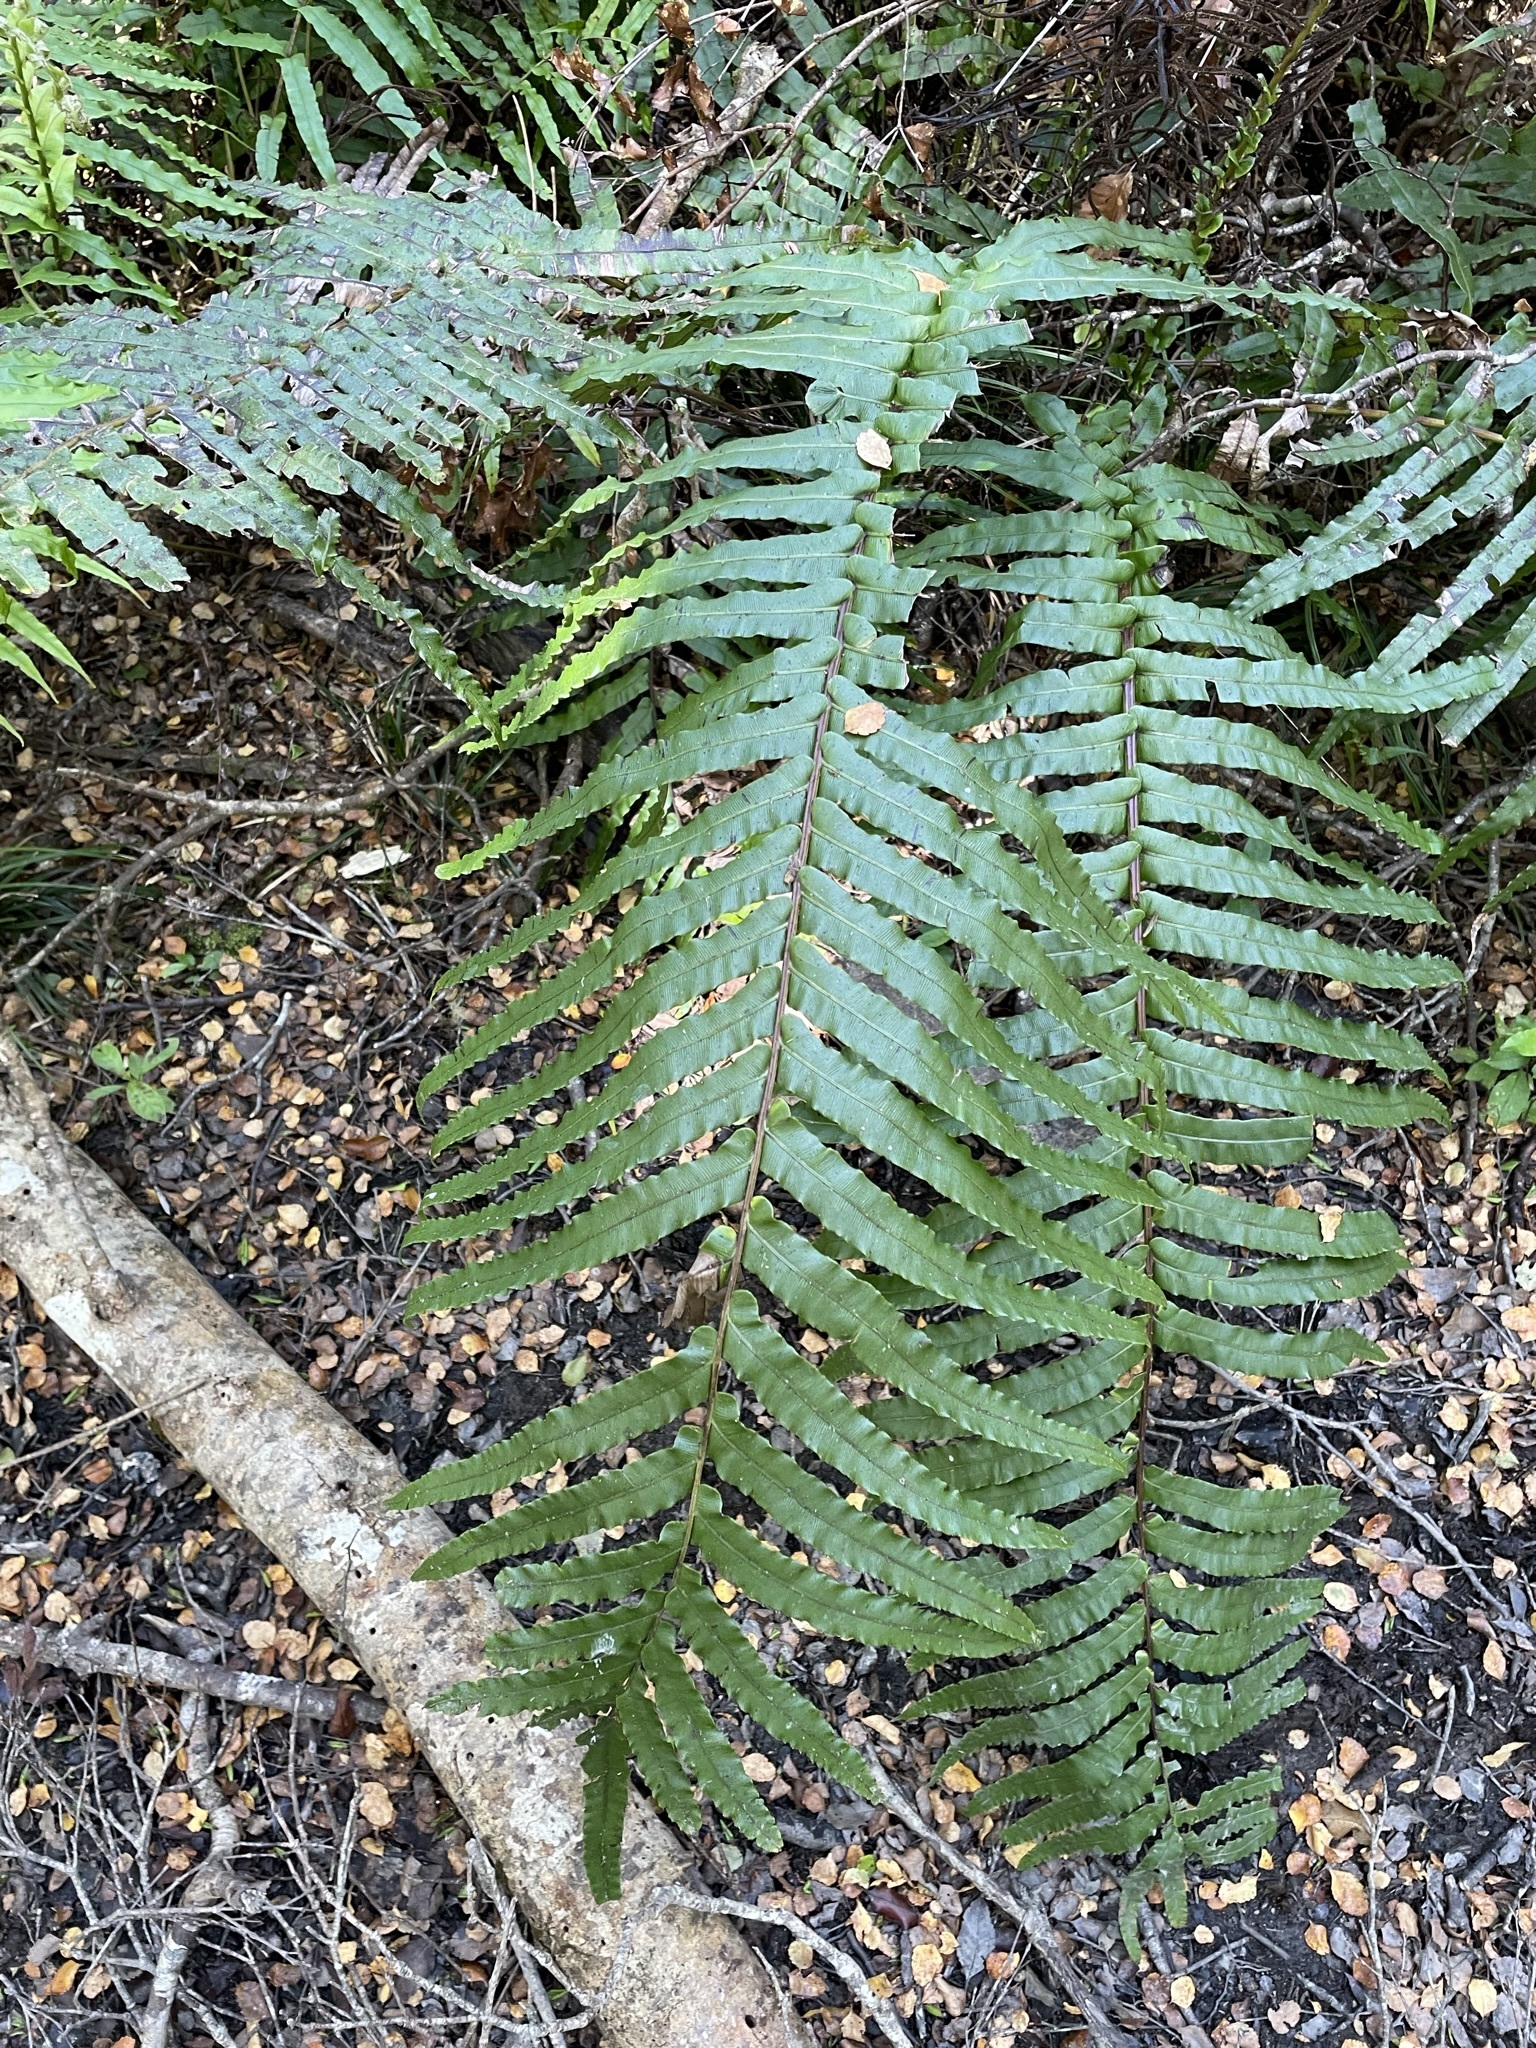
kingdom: Plantae
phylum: Tracheophyta
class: Polypodiopsida
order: Polypodiales
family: Blechnaceae
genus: Parablechnum
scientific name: Parablechnum novae-zelandiae
